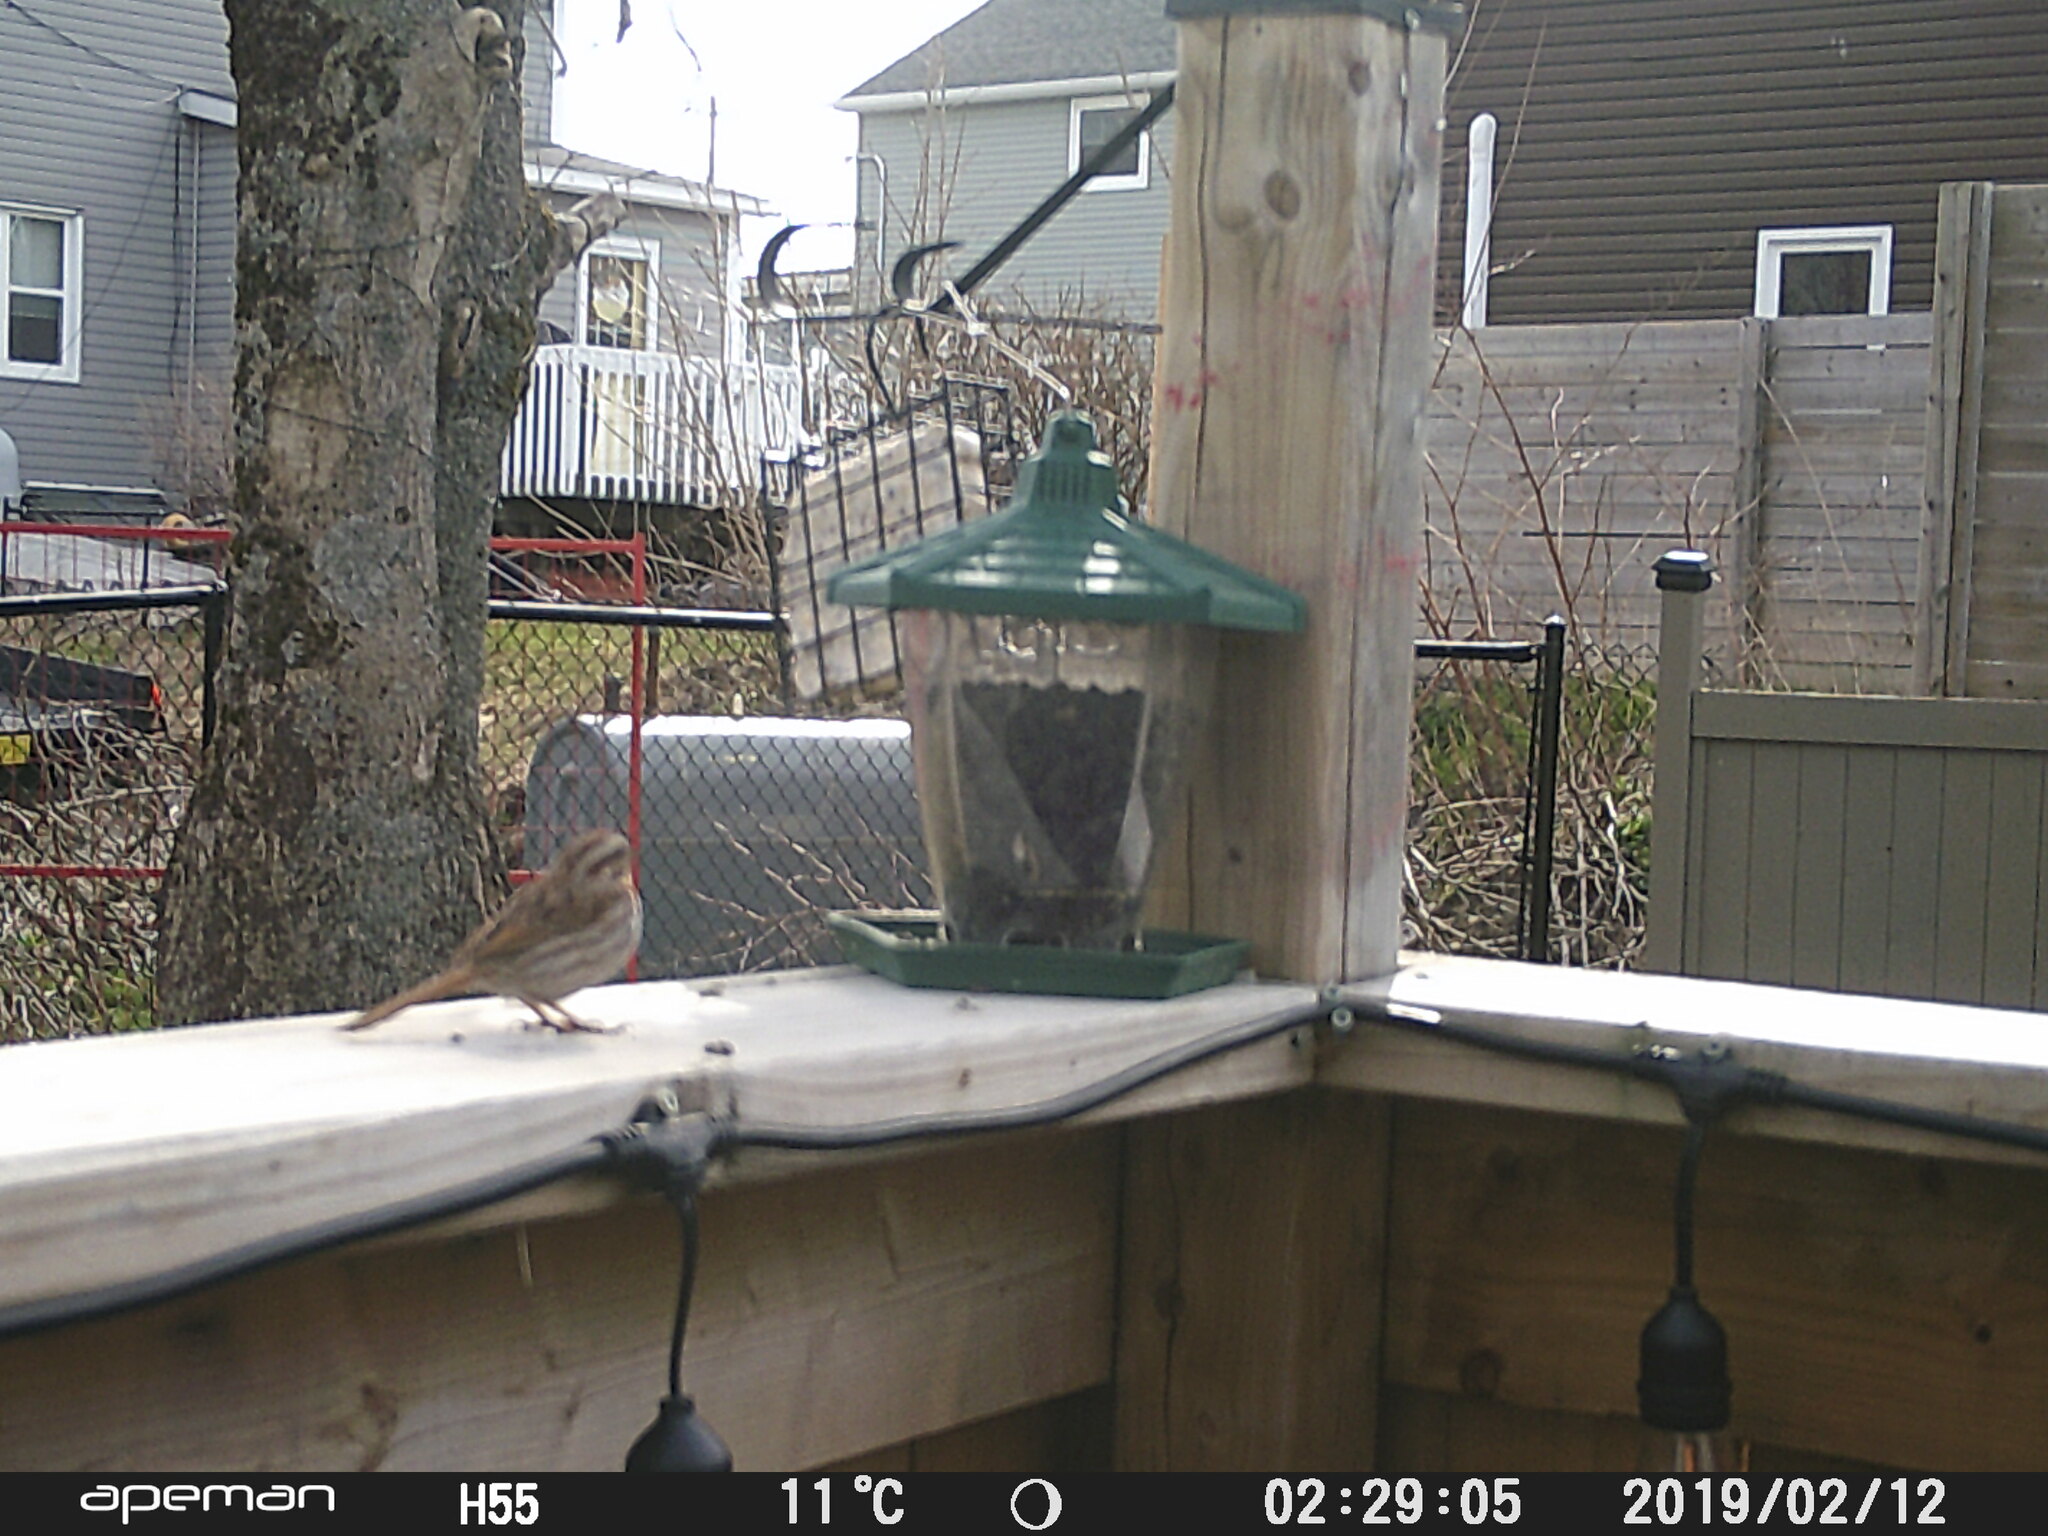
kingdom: Animalia
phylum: Chordata
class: Aves
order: Passeriformes
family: Passerellidae
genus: Melospiza
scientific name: Melospiza melodia
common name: Song sparrow
